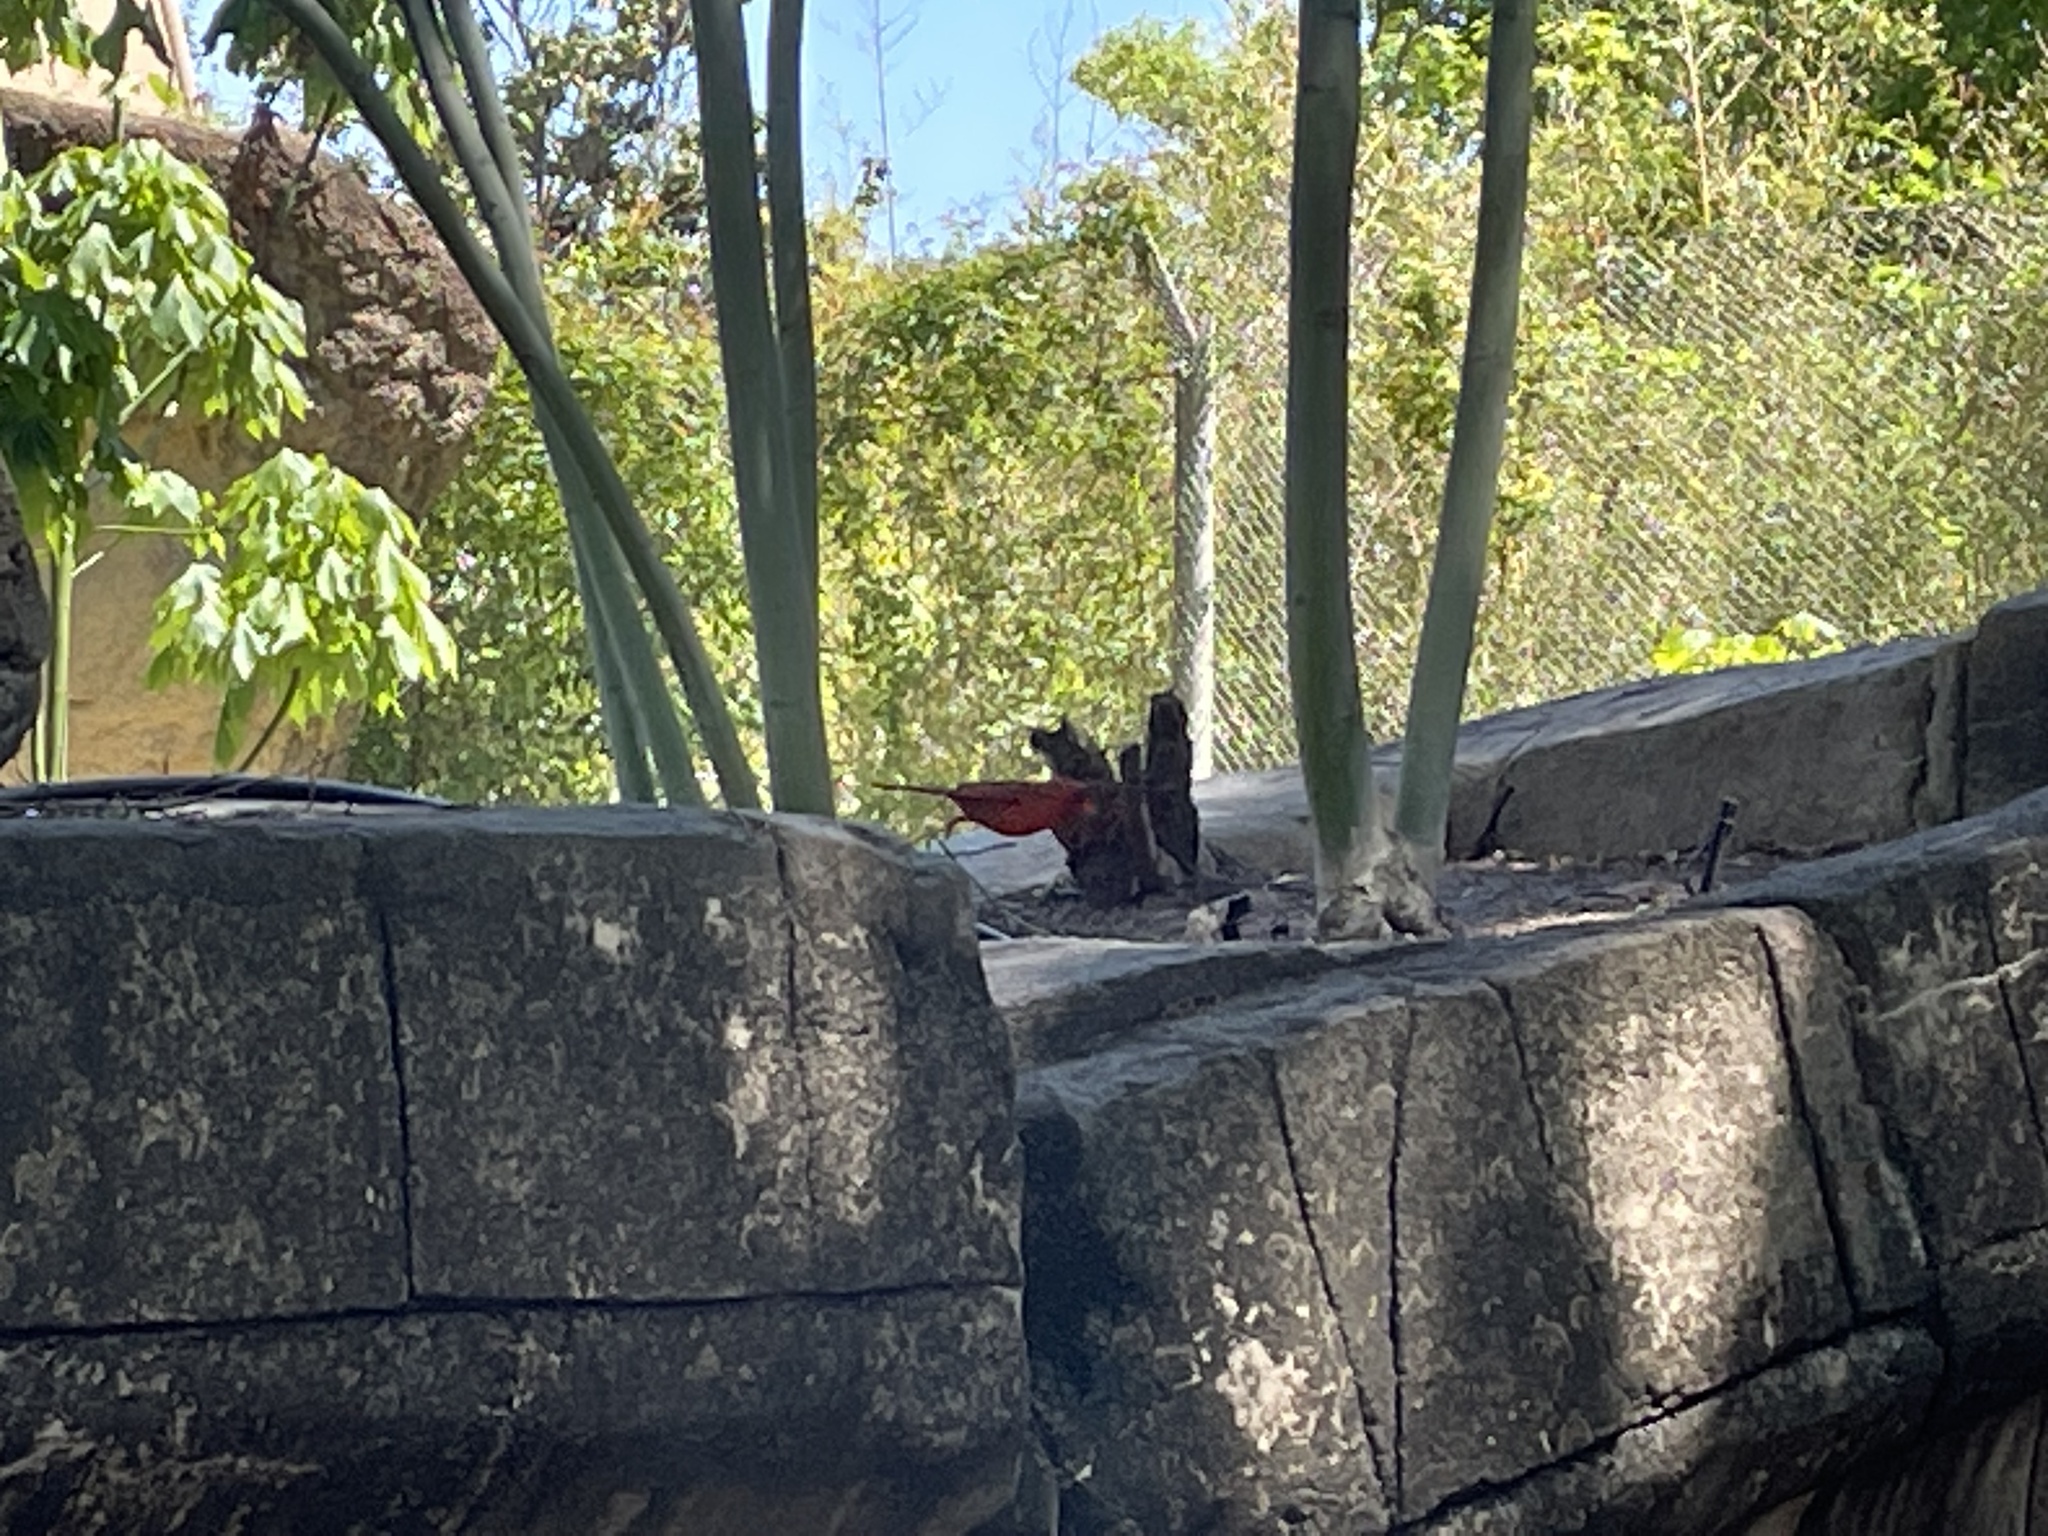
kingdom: Animalia
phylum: Chordata
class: Aves
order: Passeriformes
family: Cardinalidae
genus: Cardinalis
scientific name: Cardinalis cardinalis
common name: Northern cardinal
